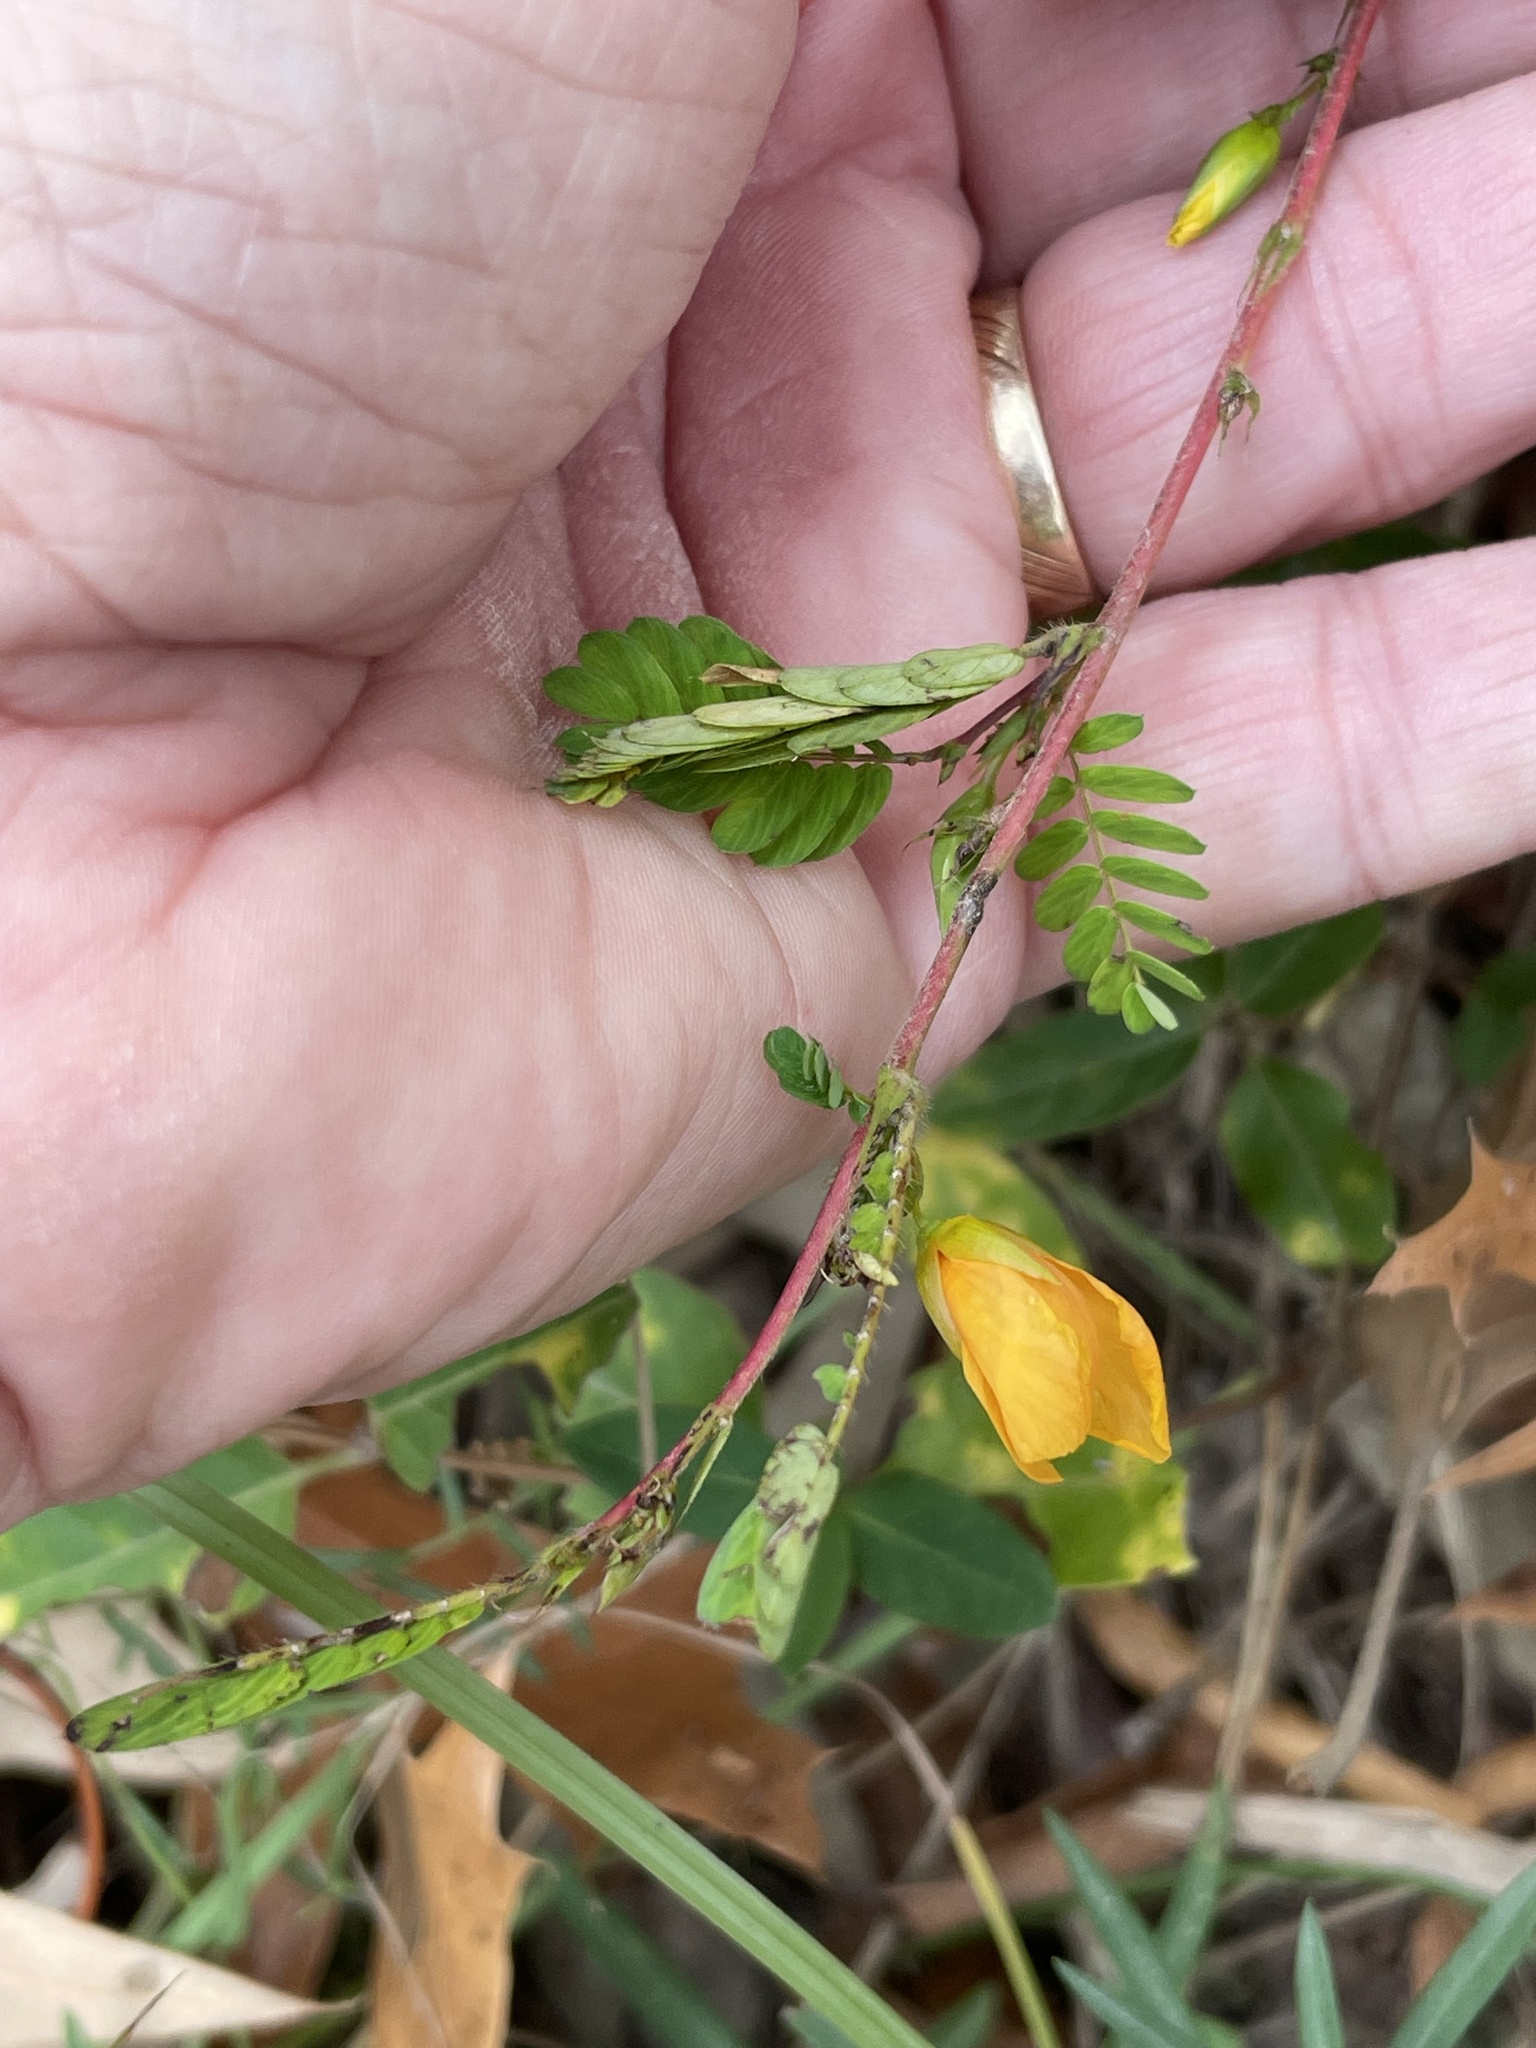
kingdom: Plantae
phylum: Tracheophyta
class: Magnoliopsida
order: Fabales
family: Fabaceae
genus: Chamaecrista
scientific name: Chamaecrista fasciculata
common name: Golden cassia
